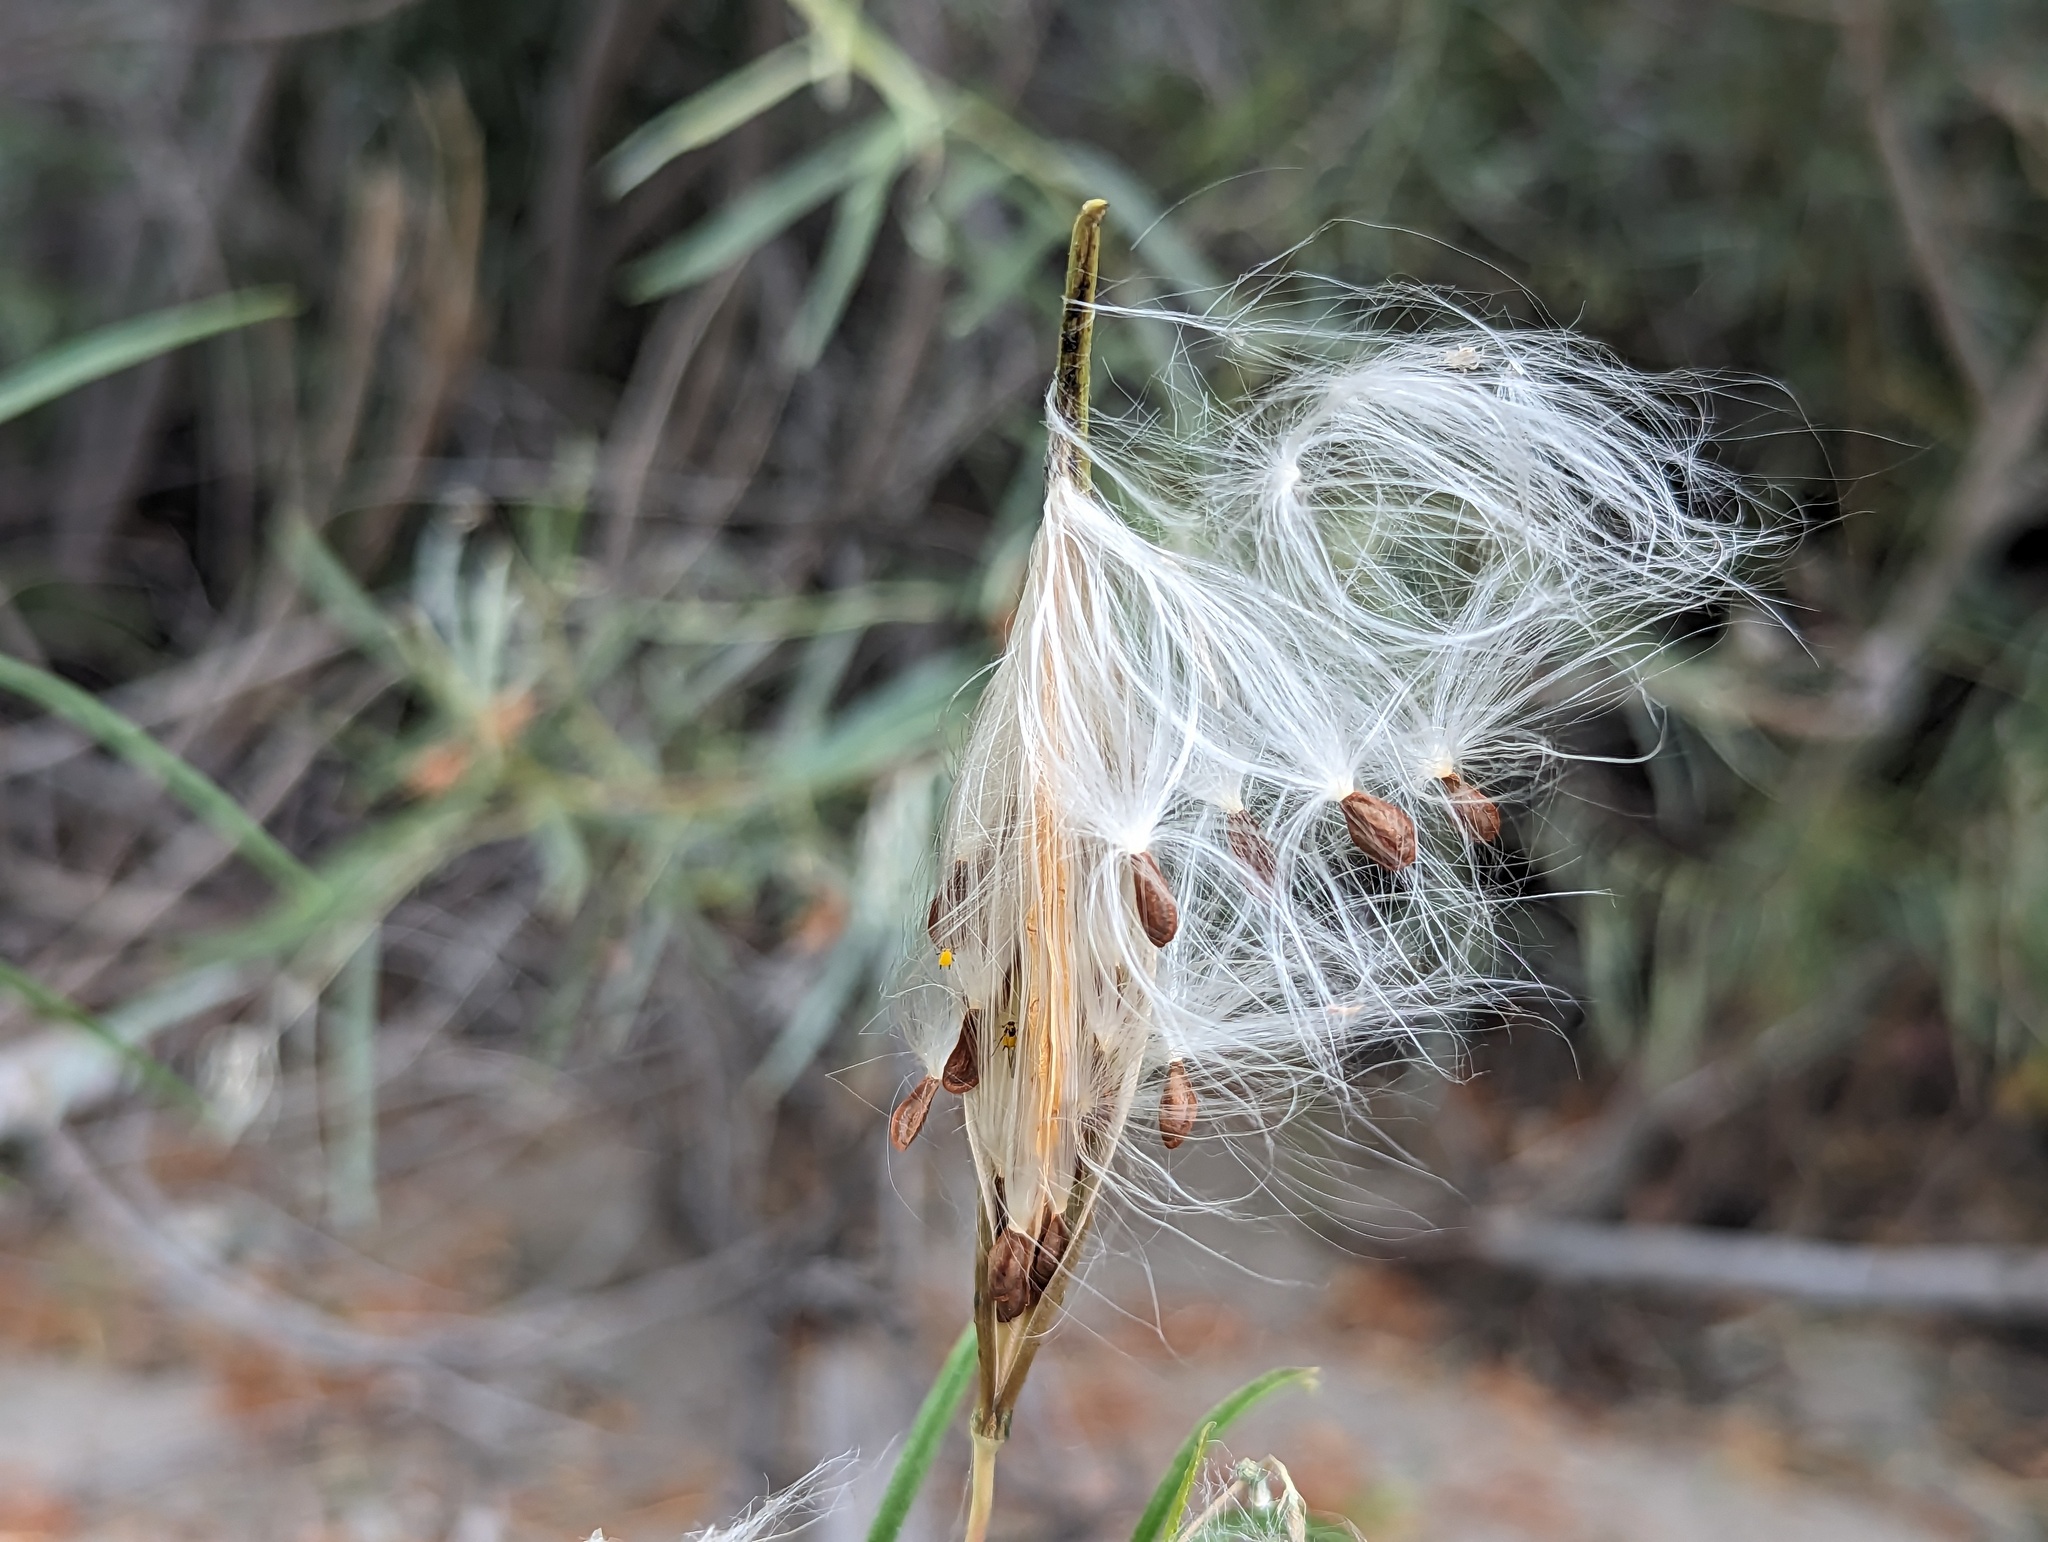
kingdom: Plantae
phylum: Tracheophyta
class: Magnoliopsida
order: Gentianales
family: Apocynaceae
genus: Asclepias
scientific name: Asclepias fascicularis
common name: Mexican milkweed
